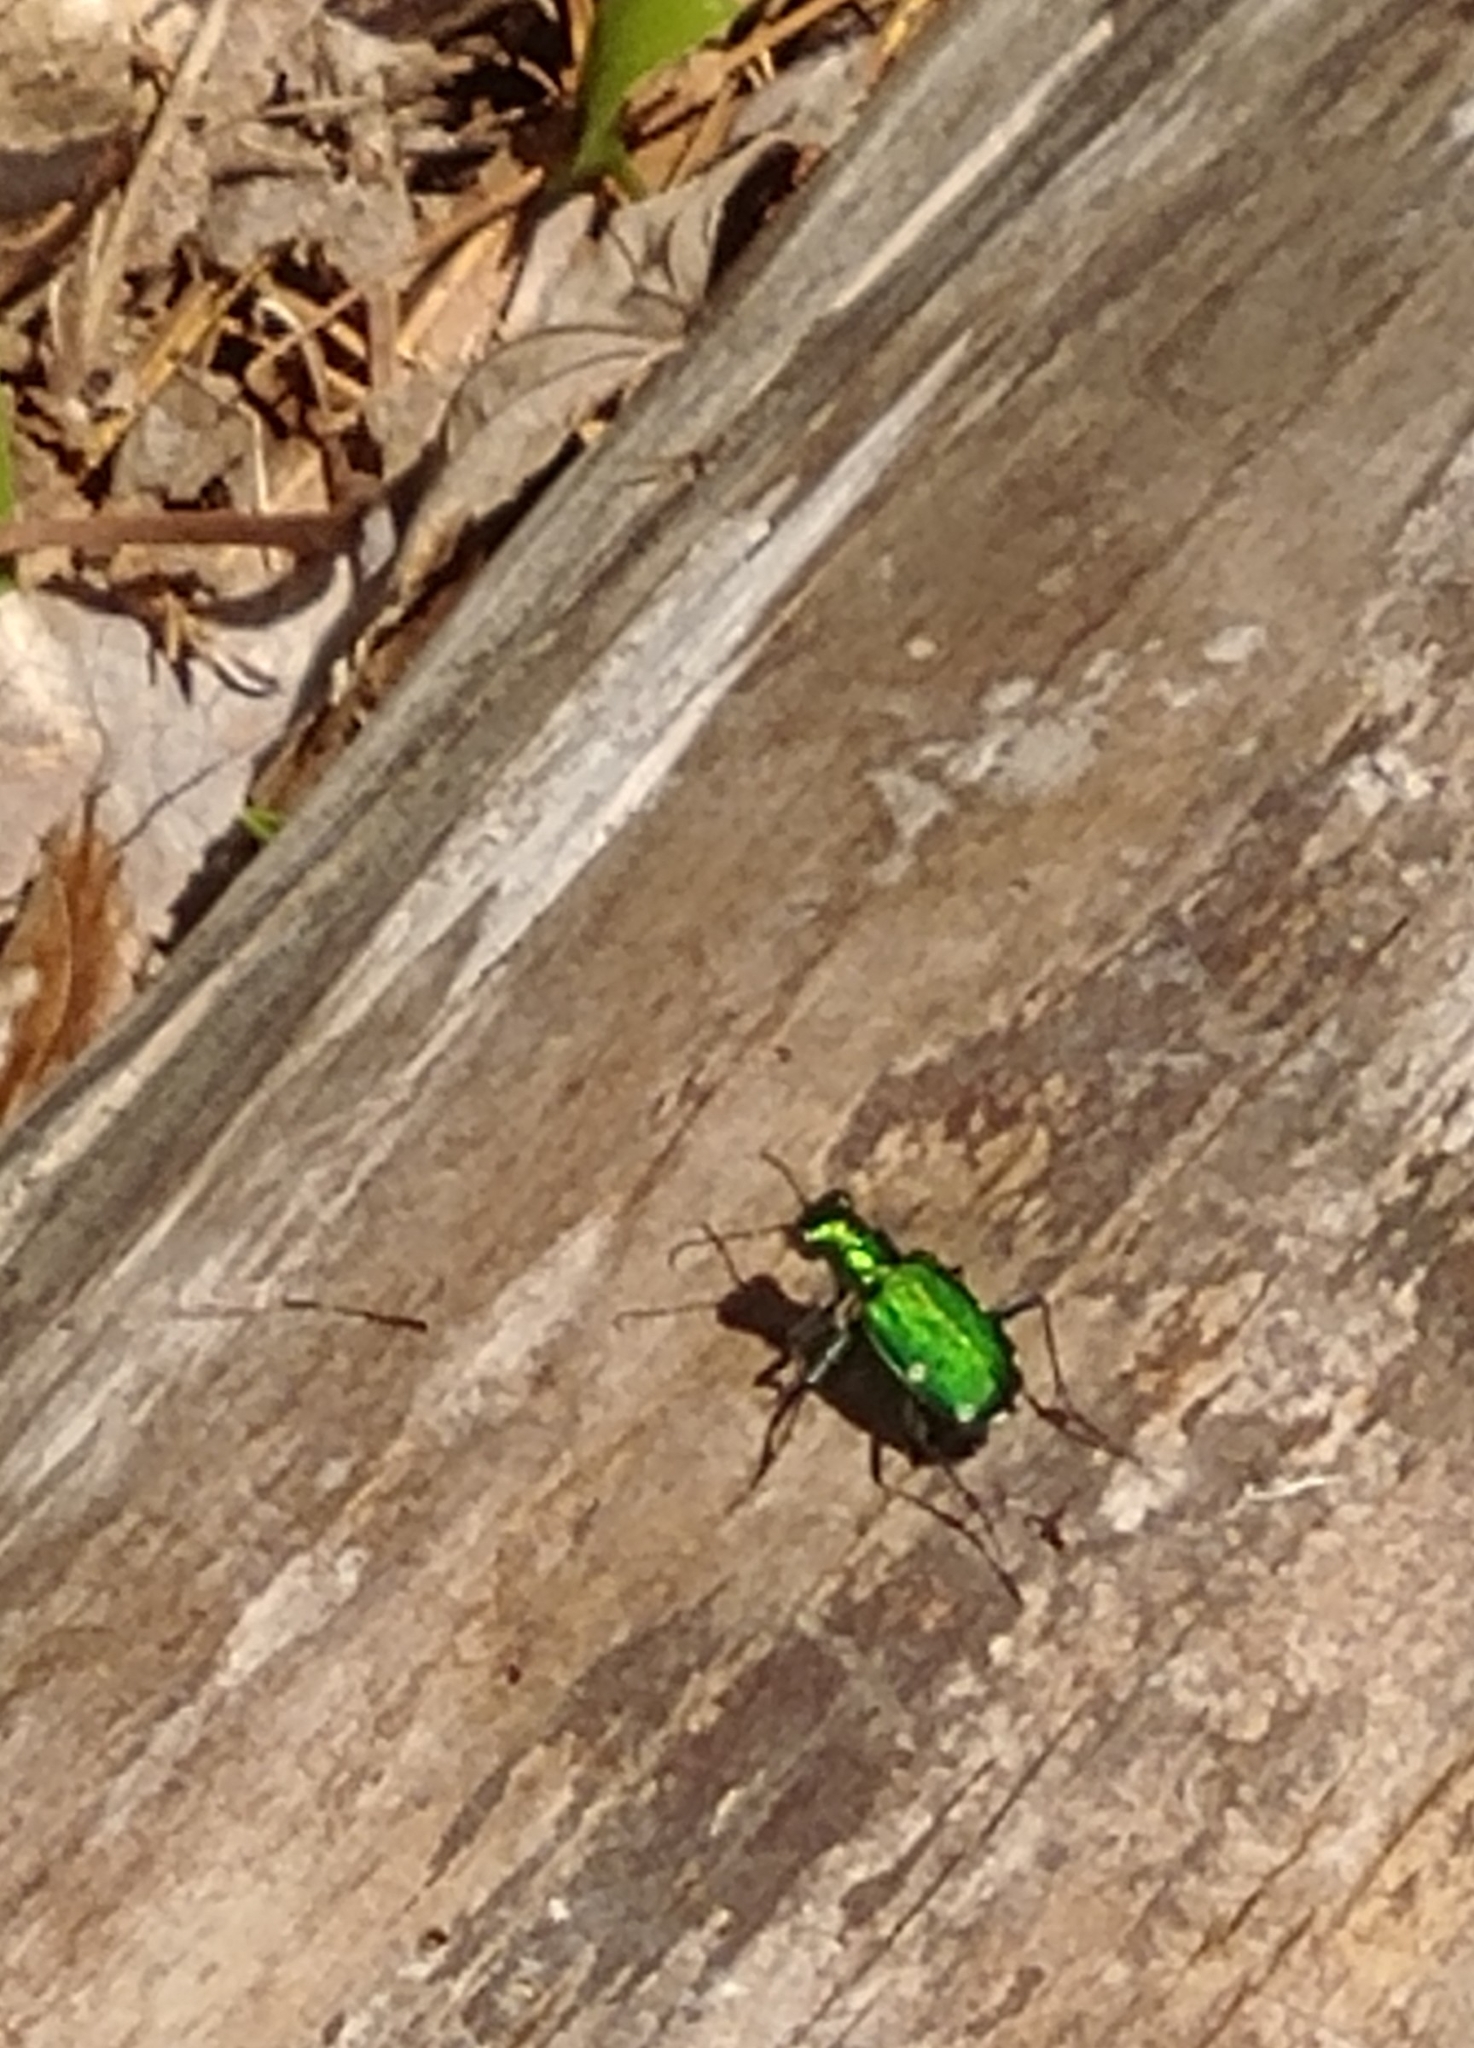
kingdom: Animalia
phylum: Arthropoda
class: Insecta
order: Coleoptera
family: Carabidae
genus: Cicindela
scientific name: Cicindela sexguttata
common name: Six-spotted tiger beetle
